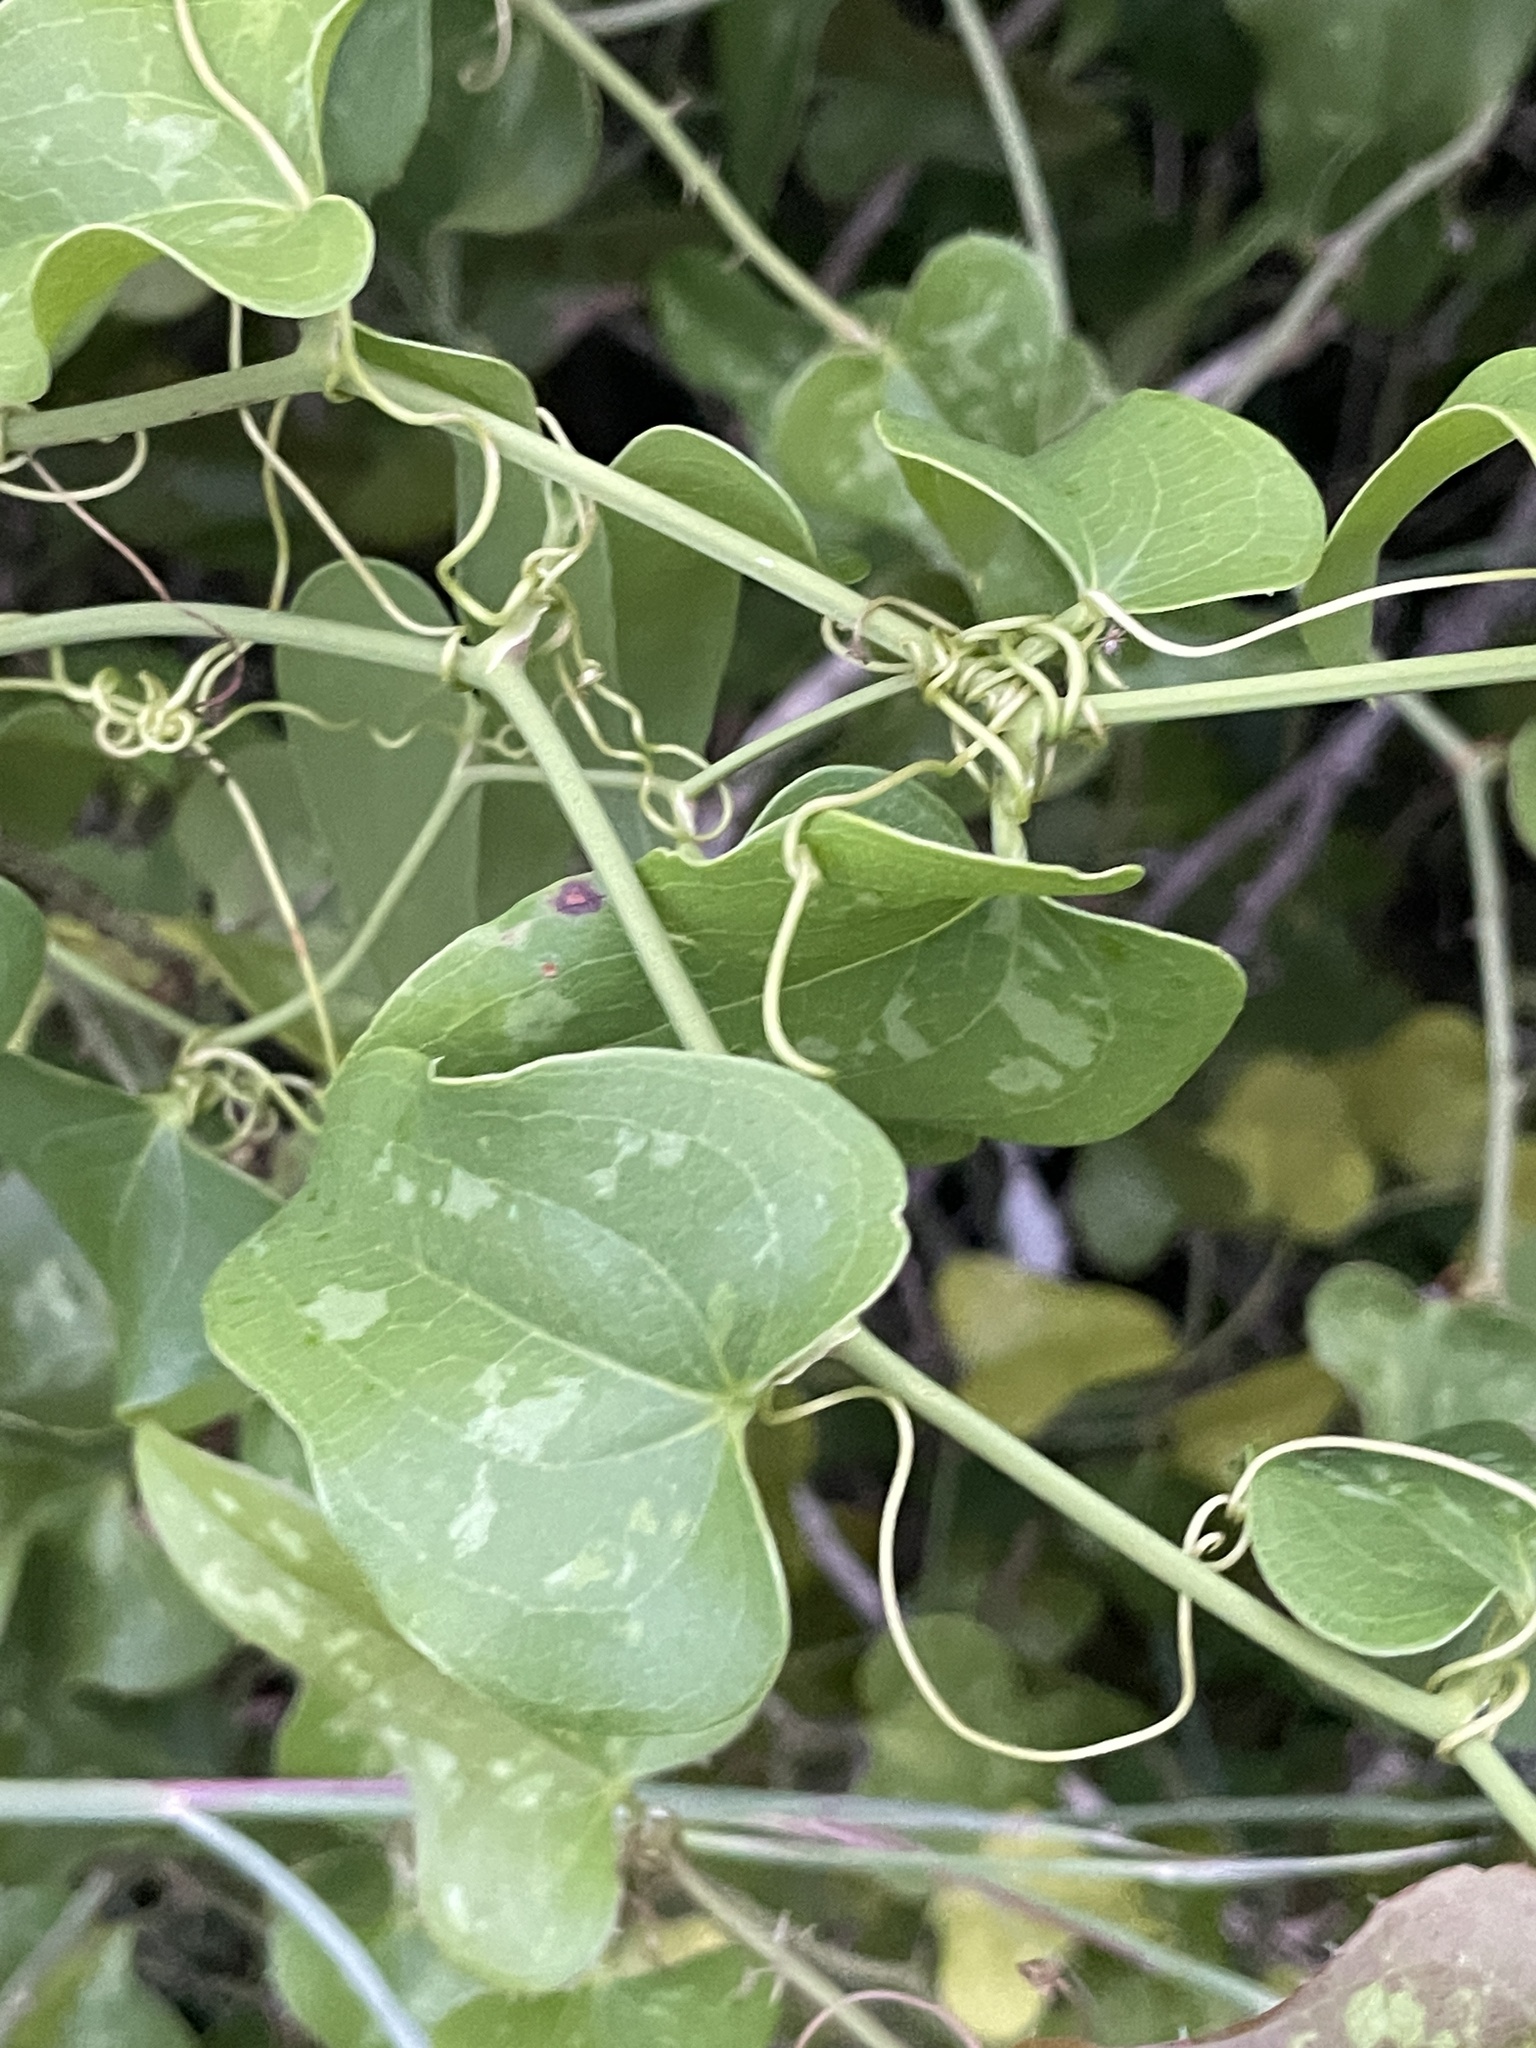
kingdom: Plantae
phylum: Tracheophyta
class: Liliopsida
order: Liliales
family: Smilacaceae
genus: Smilax
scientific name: Smilax bona-nox
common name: Catbrier
